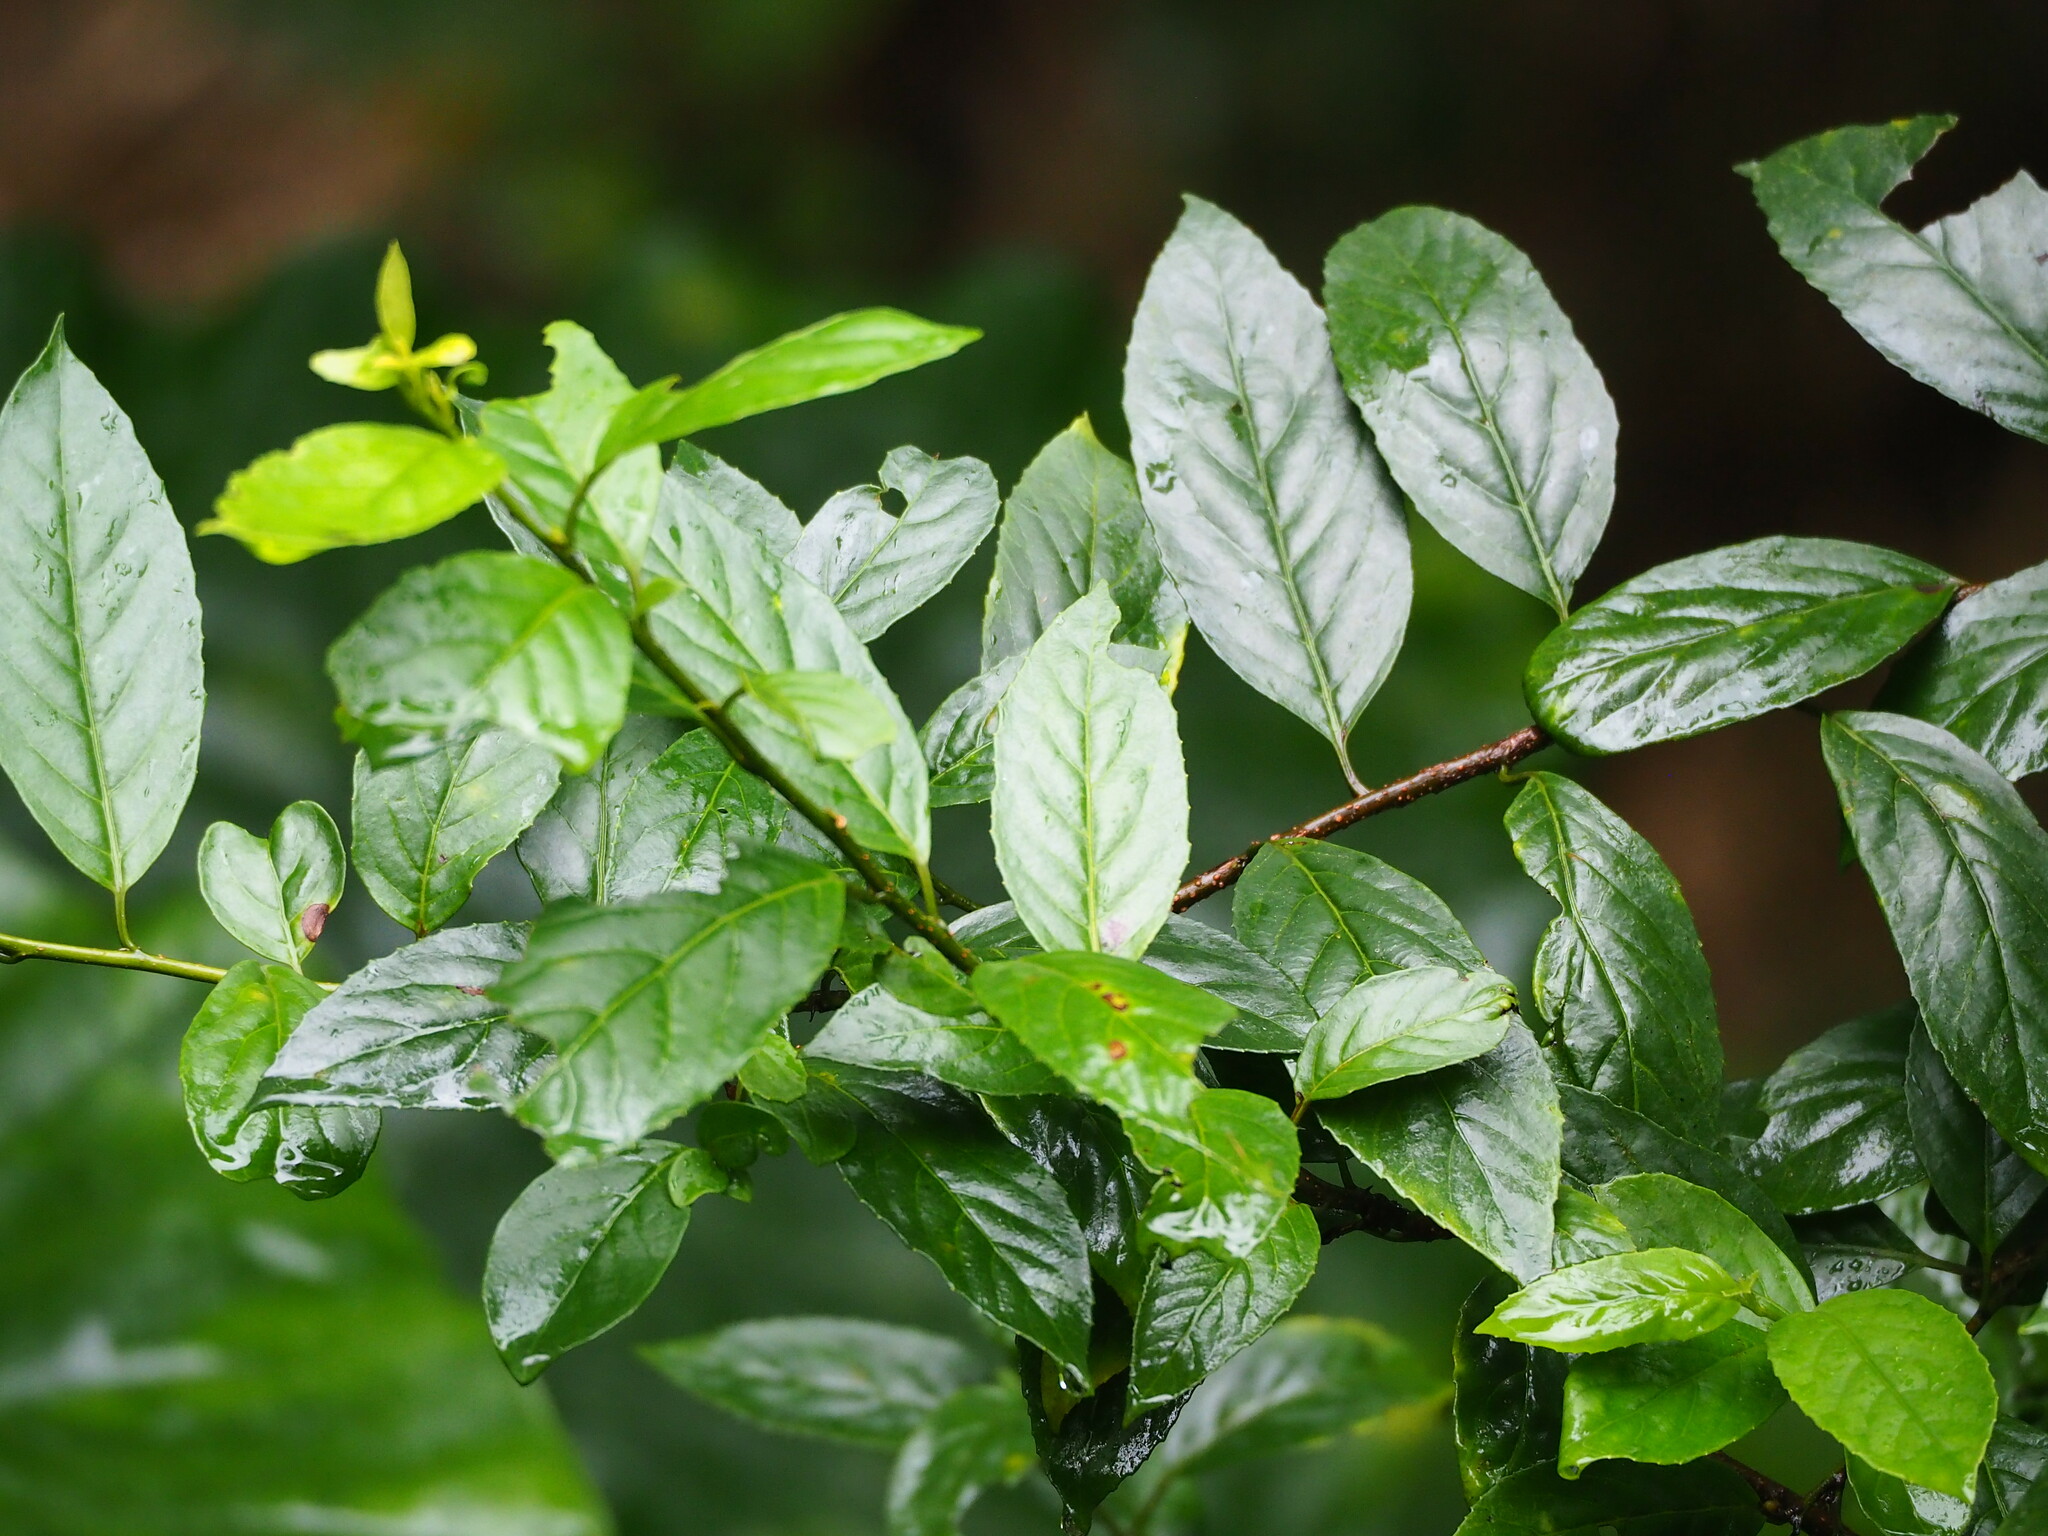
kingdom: Plantae
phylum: Tracheophyta
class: Magnoliopsida
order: Ericales
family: Primulaceae
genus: Maesa
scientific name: Maesa perlaria
